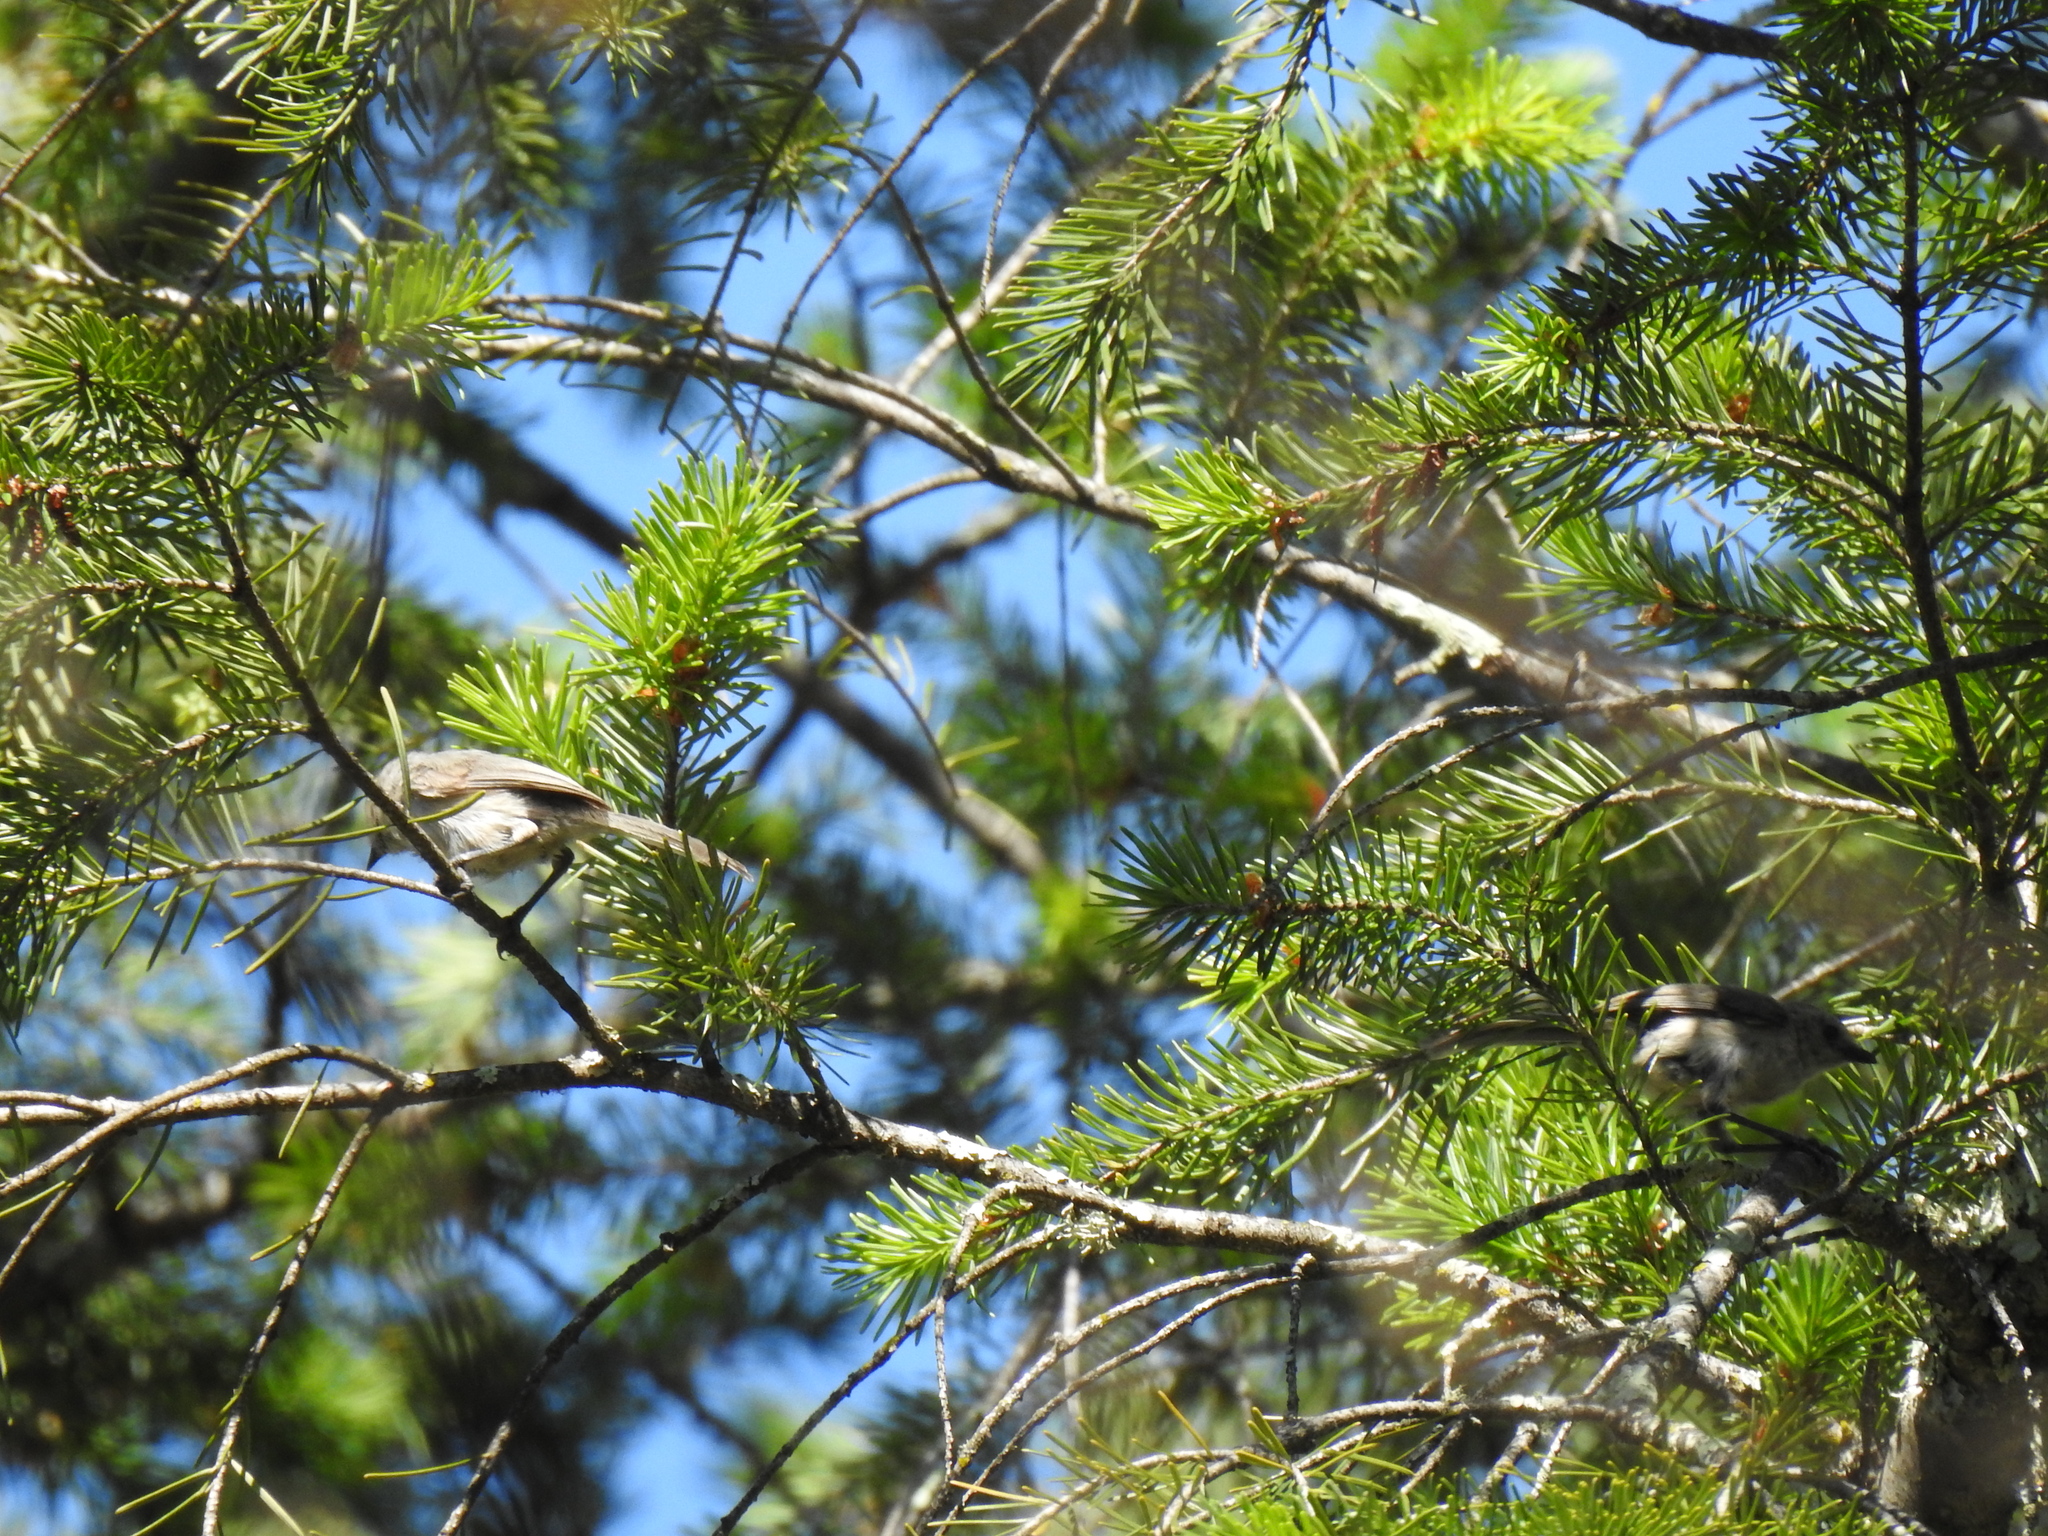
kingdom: Animalia
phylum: Chordata
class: Aves
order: Passeriformes
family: Aegithalidae
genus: Psaltriparus
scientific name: Psaltriparus minimus
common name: American bushtit
